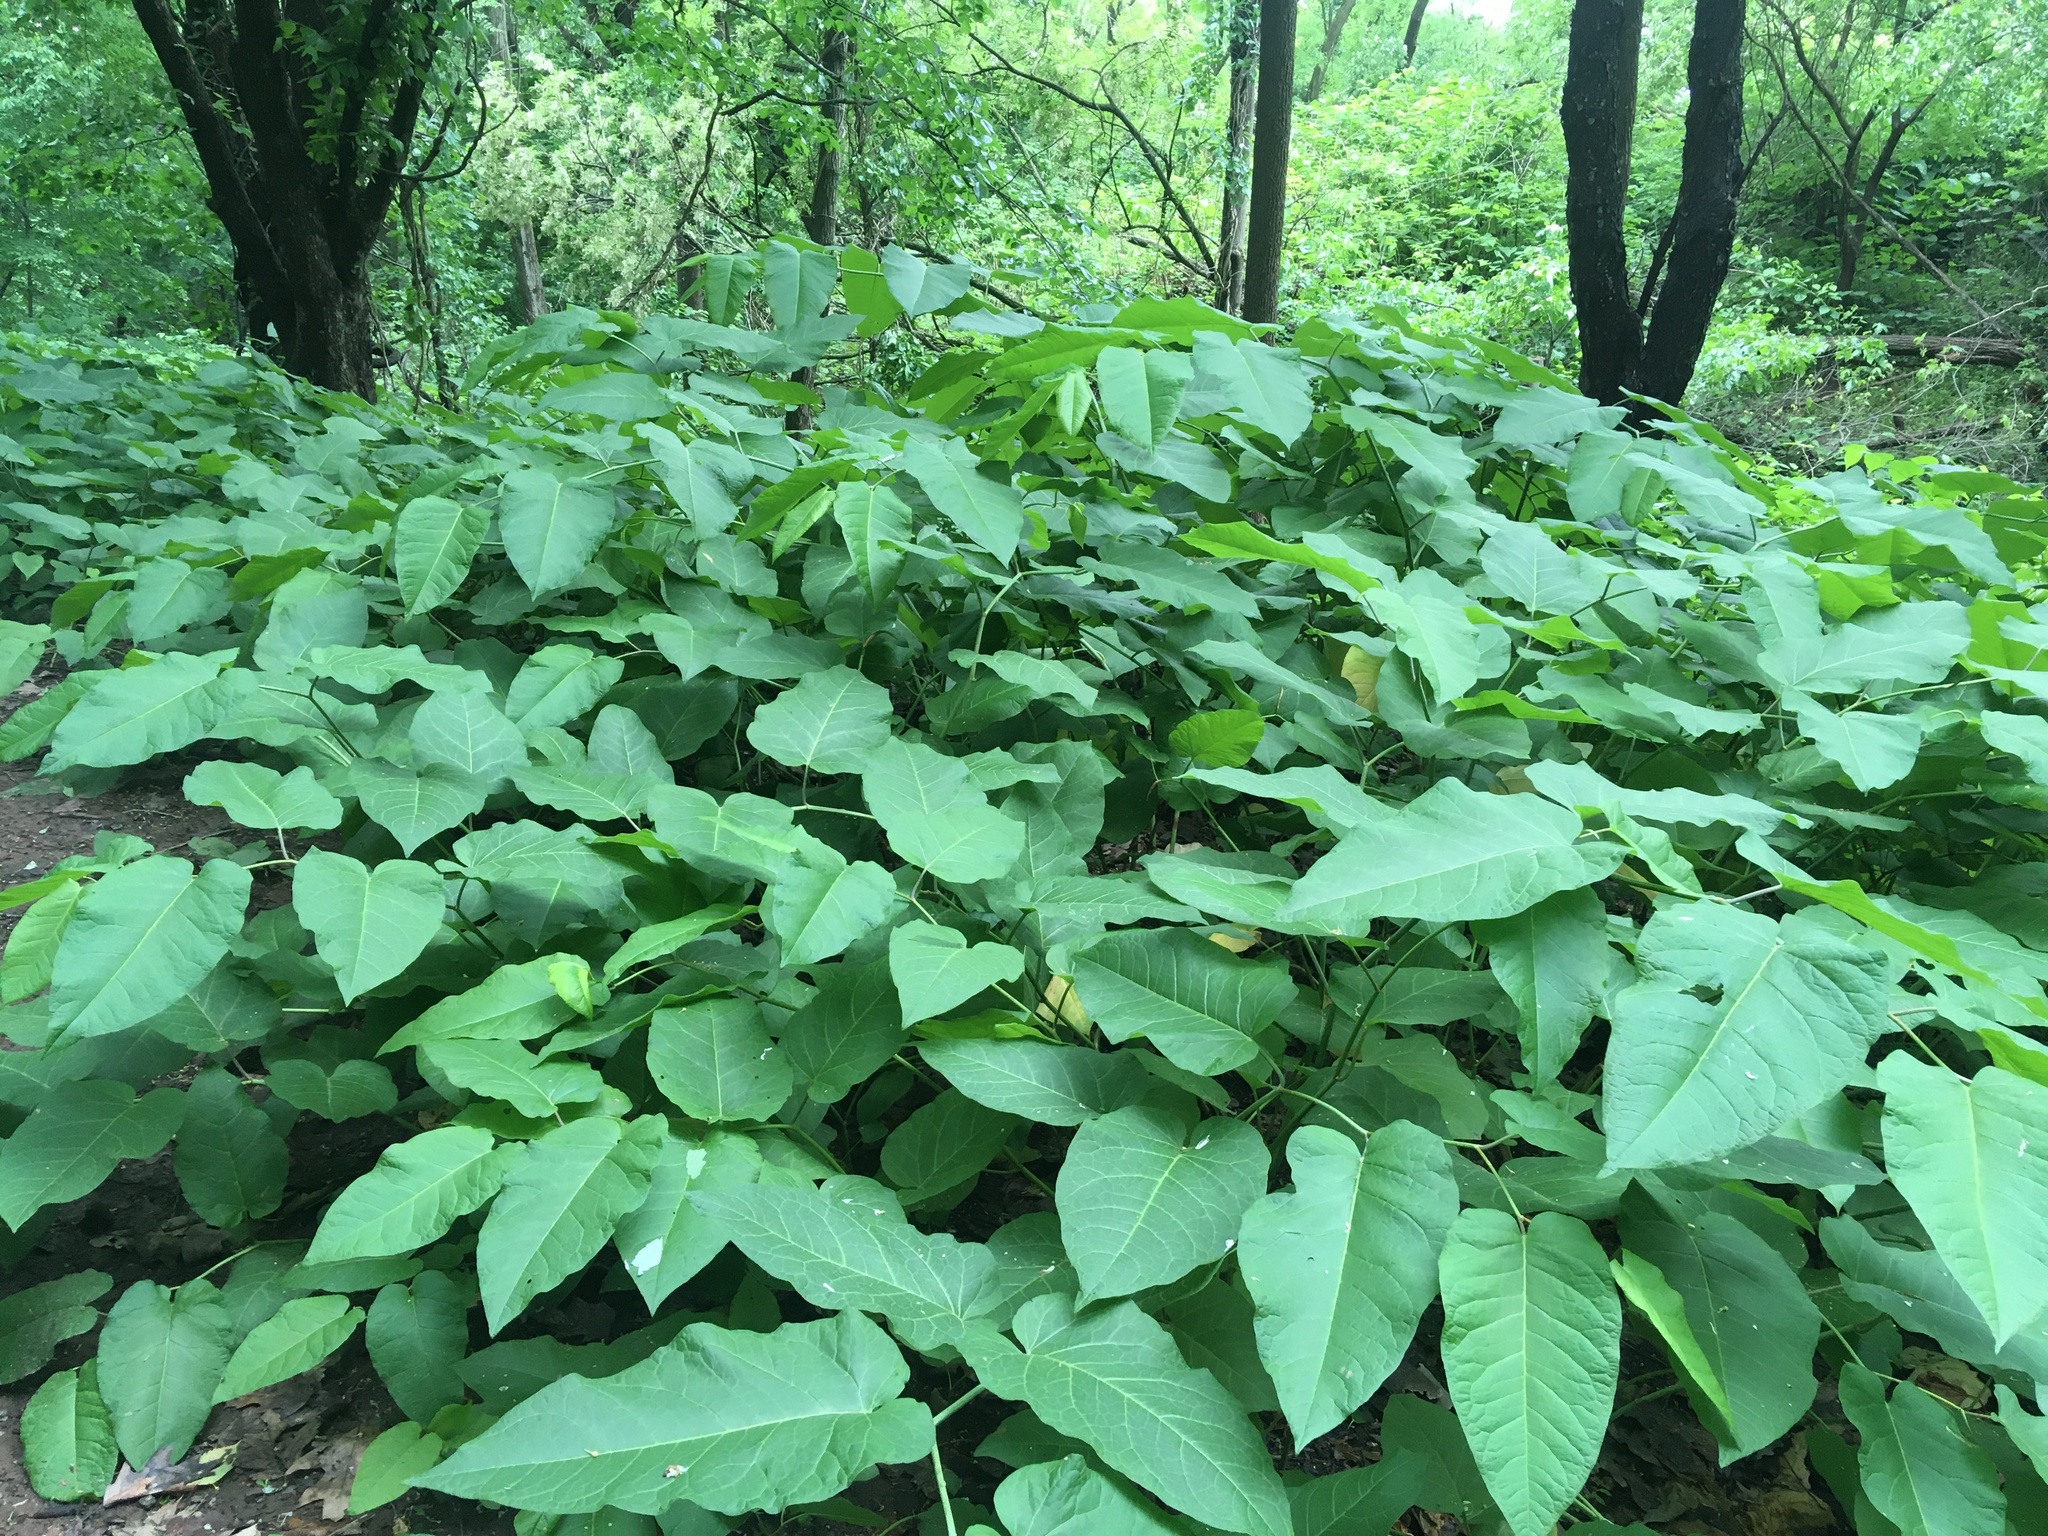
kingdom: Plantae
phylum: Tracheophyta
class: Magnoliopsida
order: Caryophyllales
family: Polygonaceae
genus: Reynoutria
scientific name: Reynoutria sachalinensis
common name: Giant knotweed
